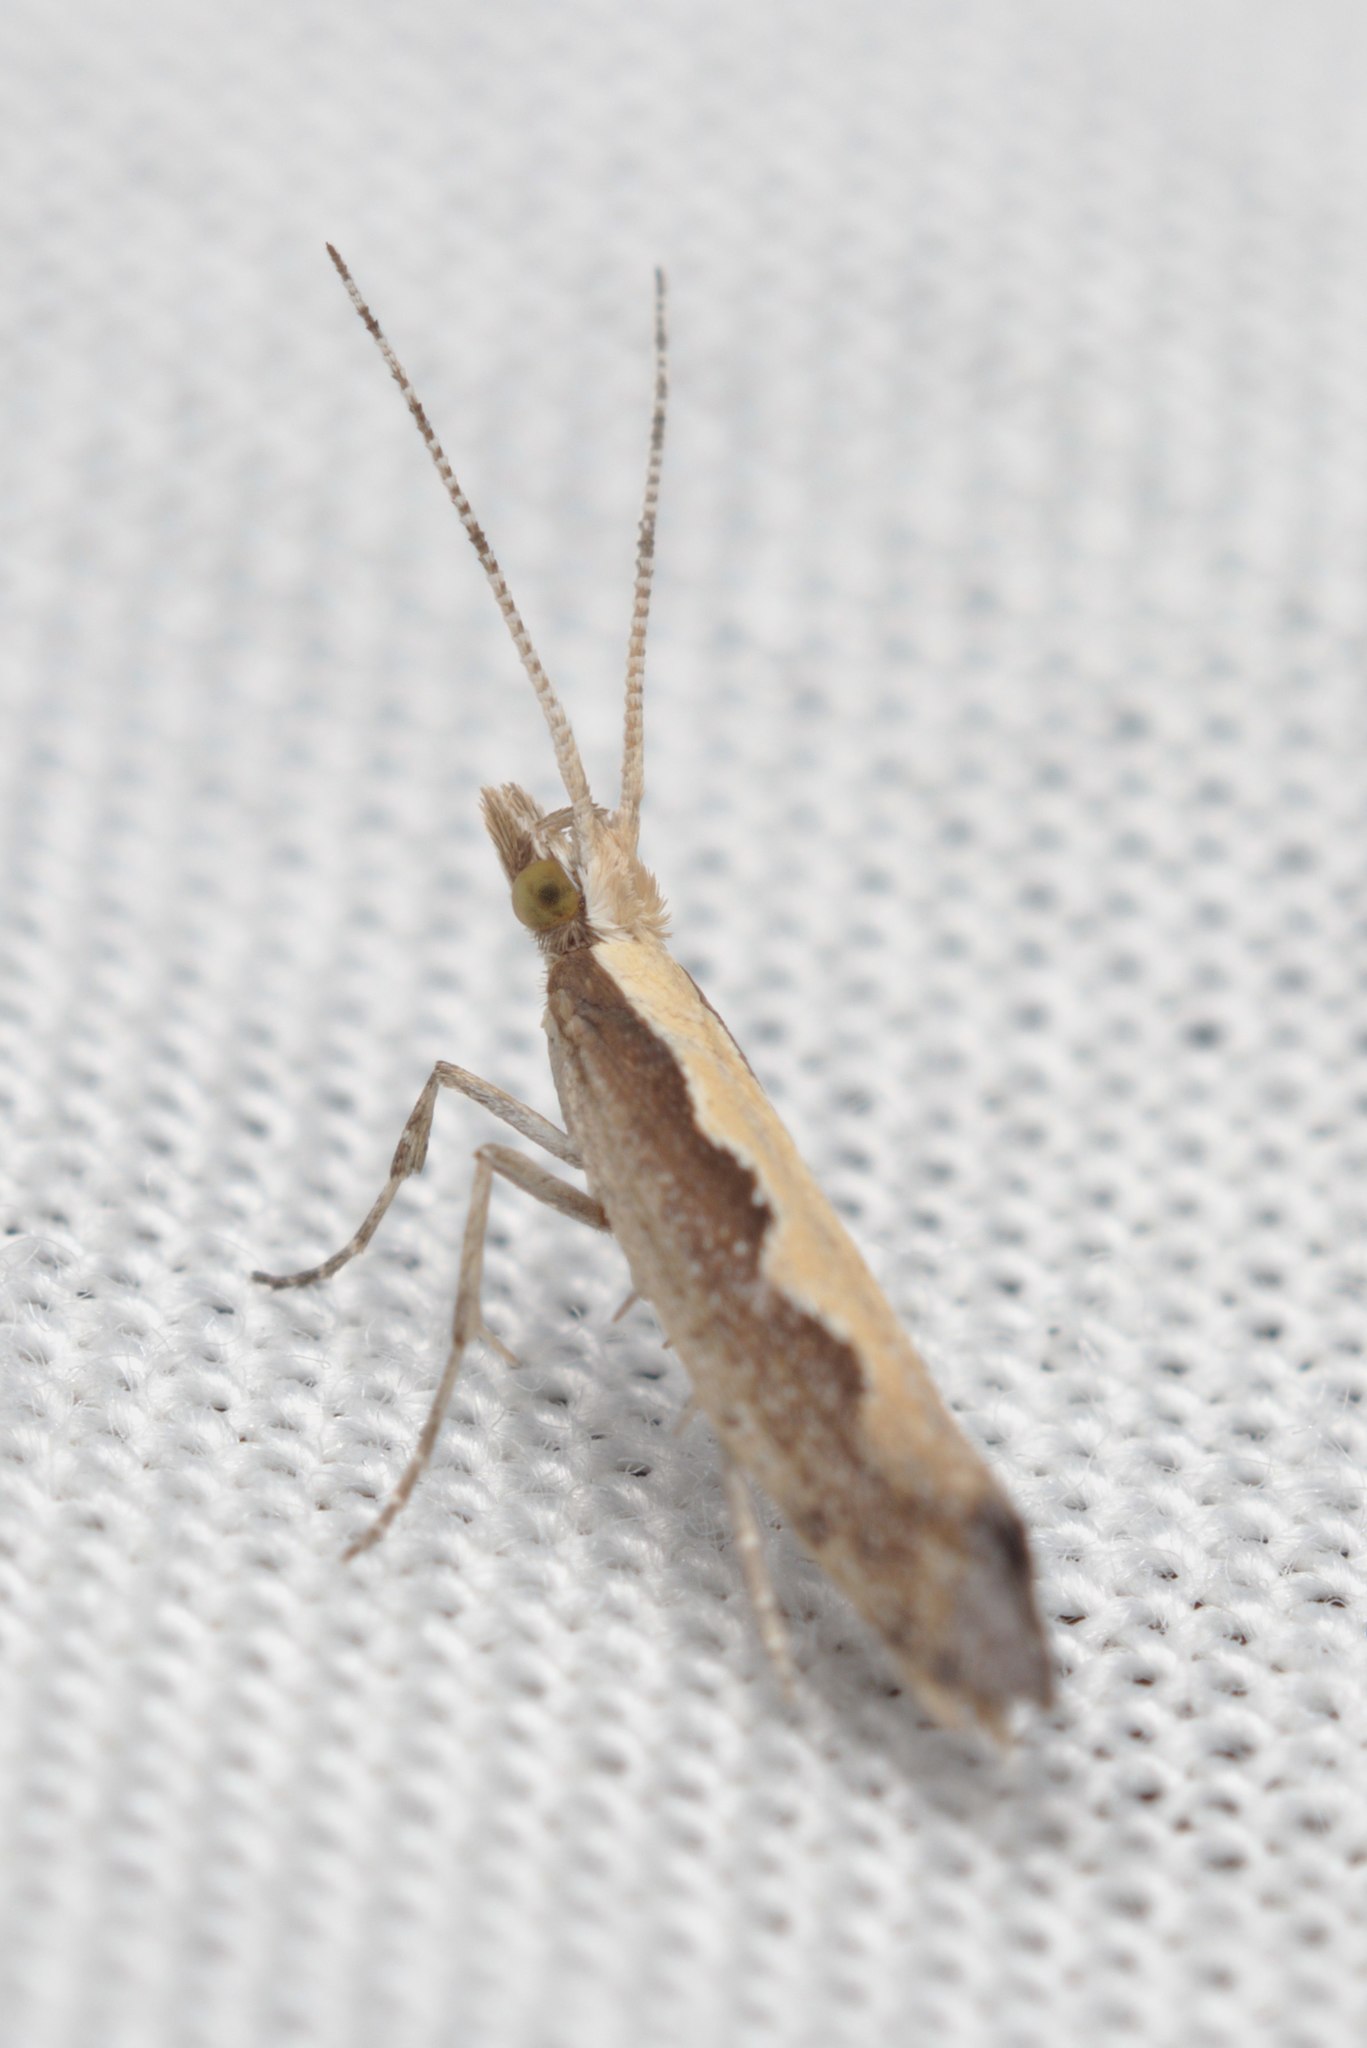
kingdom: Animalia
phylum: Arthropoda
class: Insecta
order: Lepidoptera
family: Plutellidae
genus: Plutella
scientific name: Plutella xylostella
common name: Diamond-back moth
